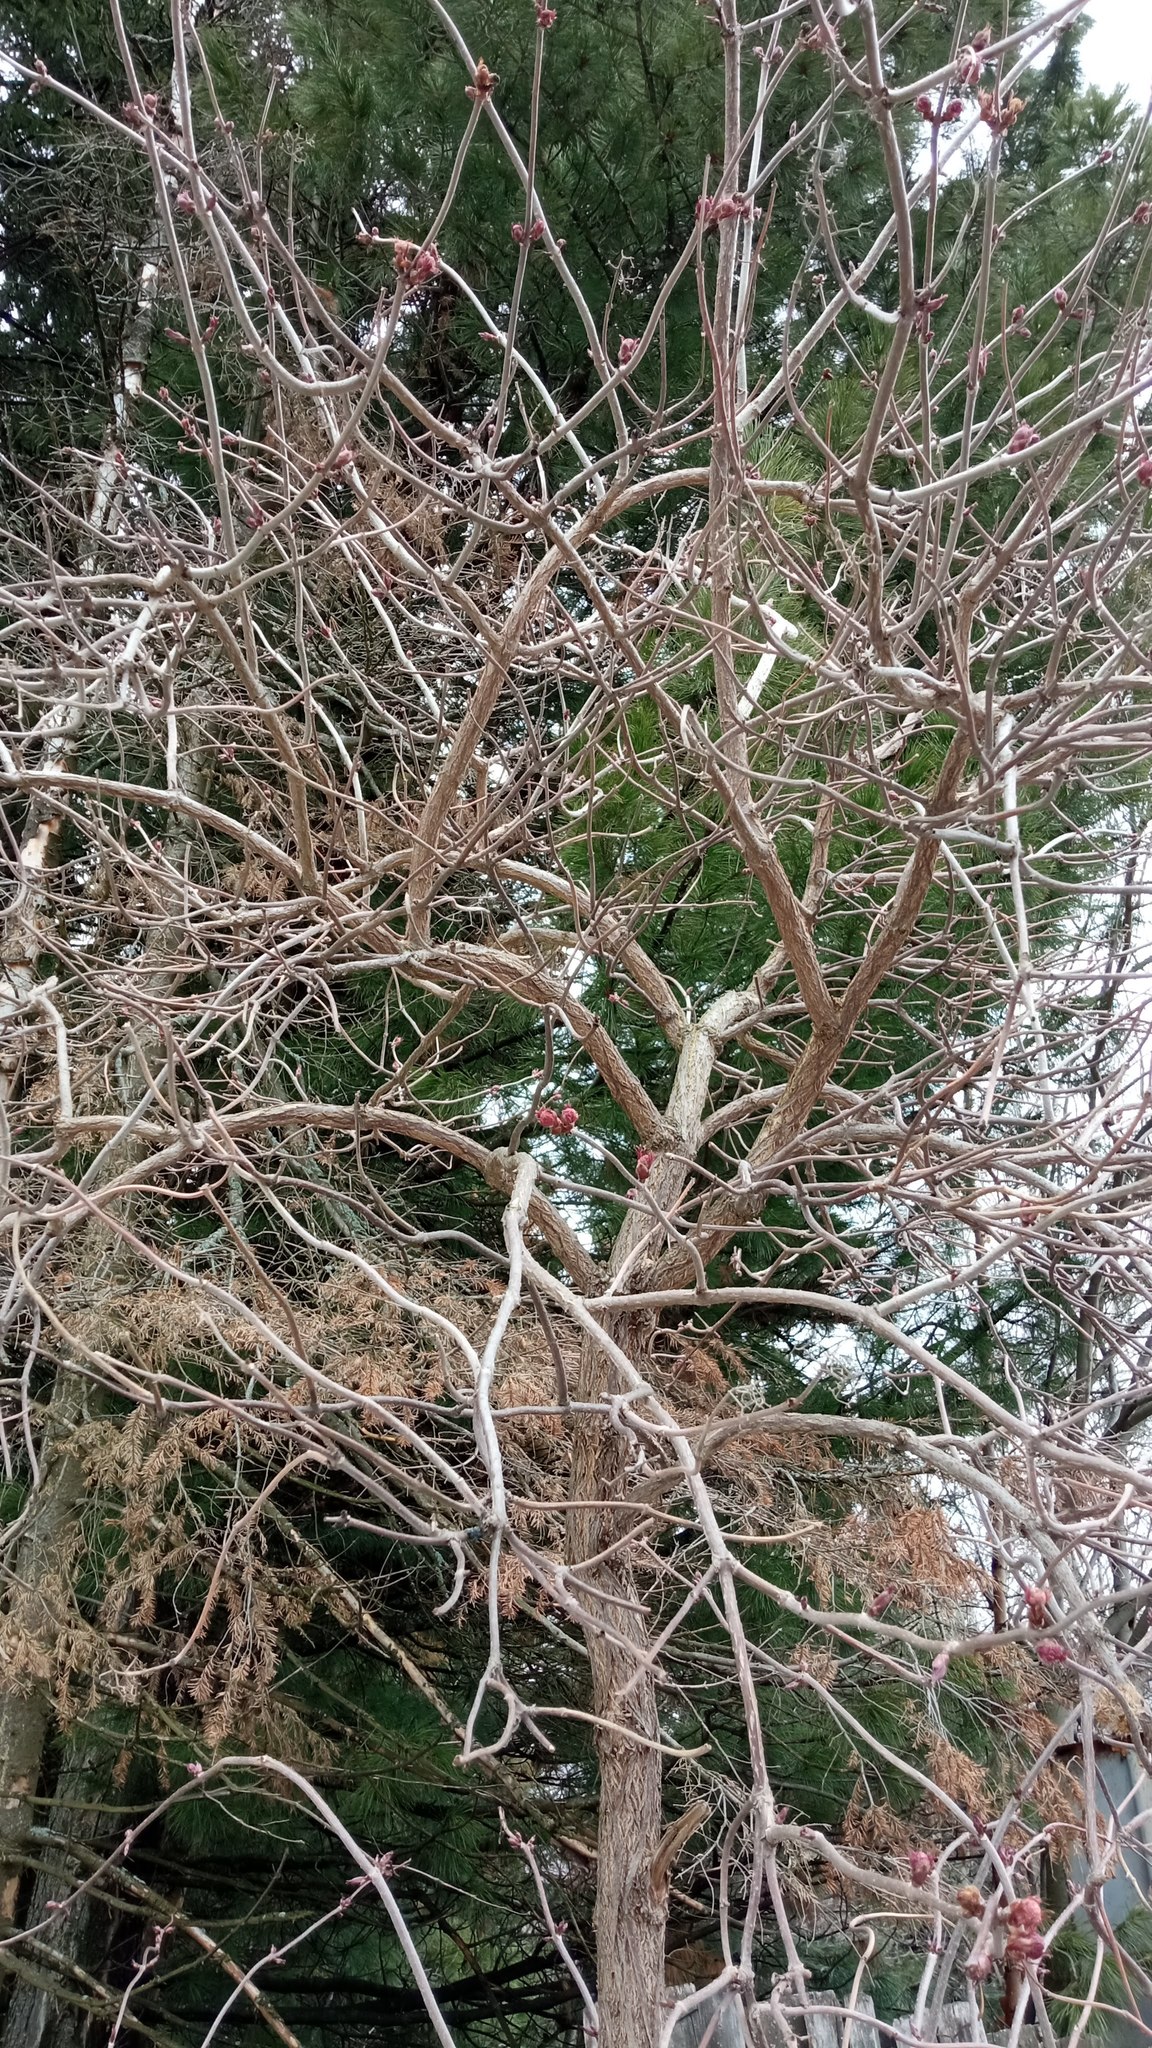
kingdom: Plantae
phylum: Tracheophyta
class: Magnoliopsida
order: Dipsacales
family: Viburnaceae
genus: Sambucus
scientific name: Sambucus sibirica
